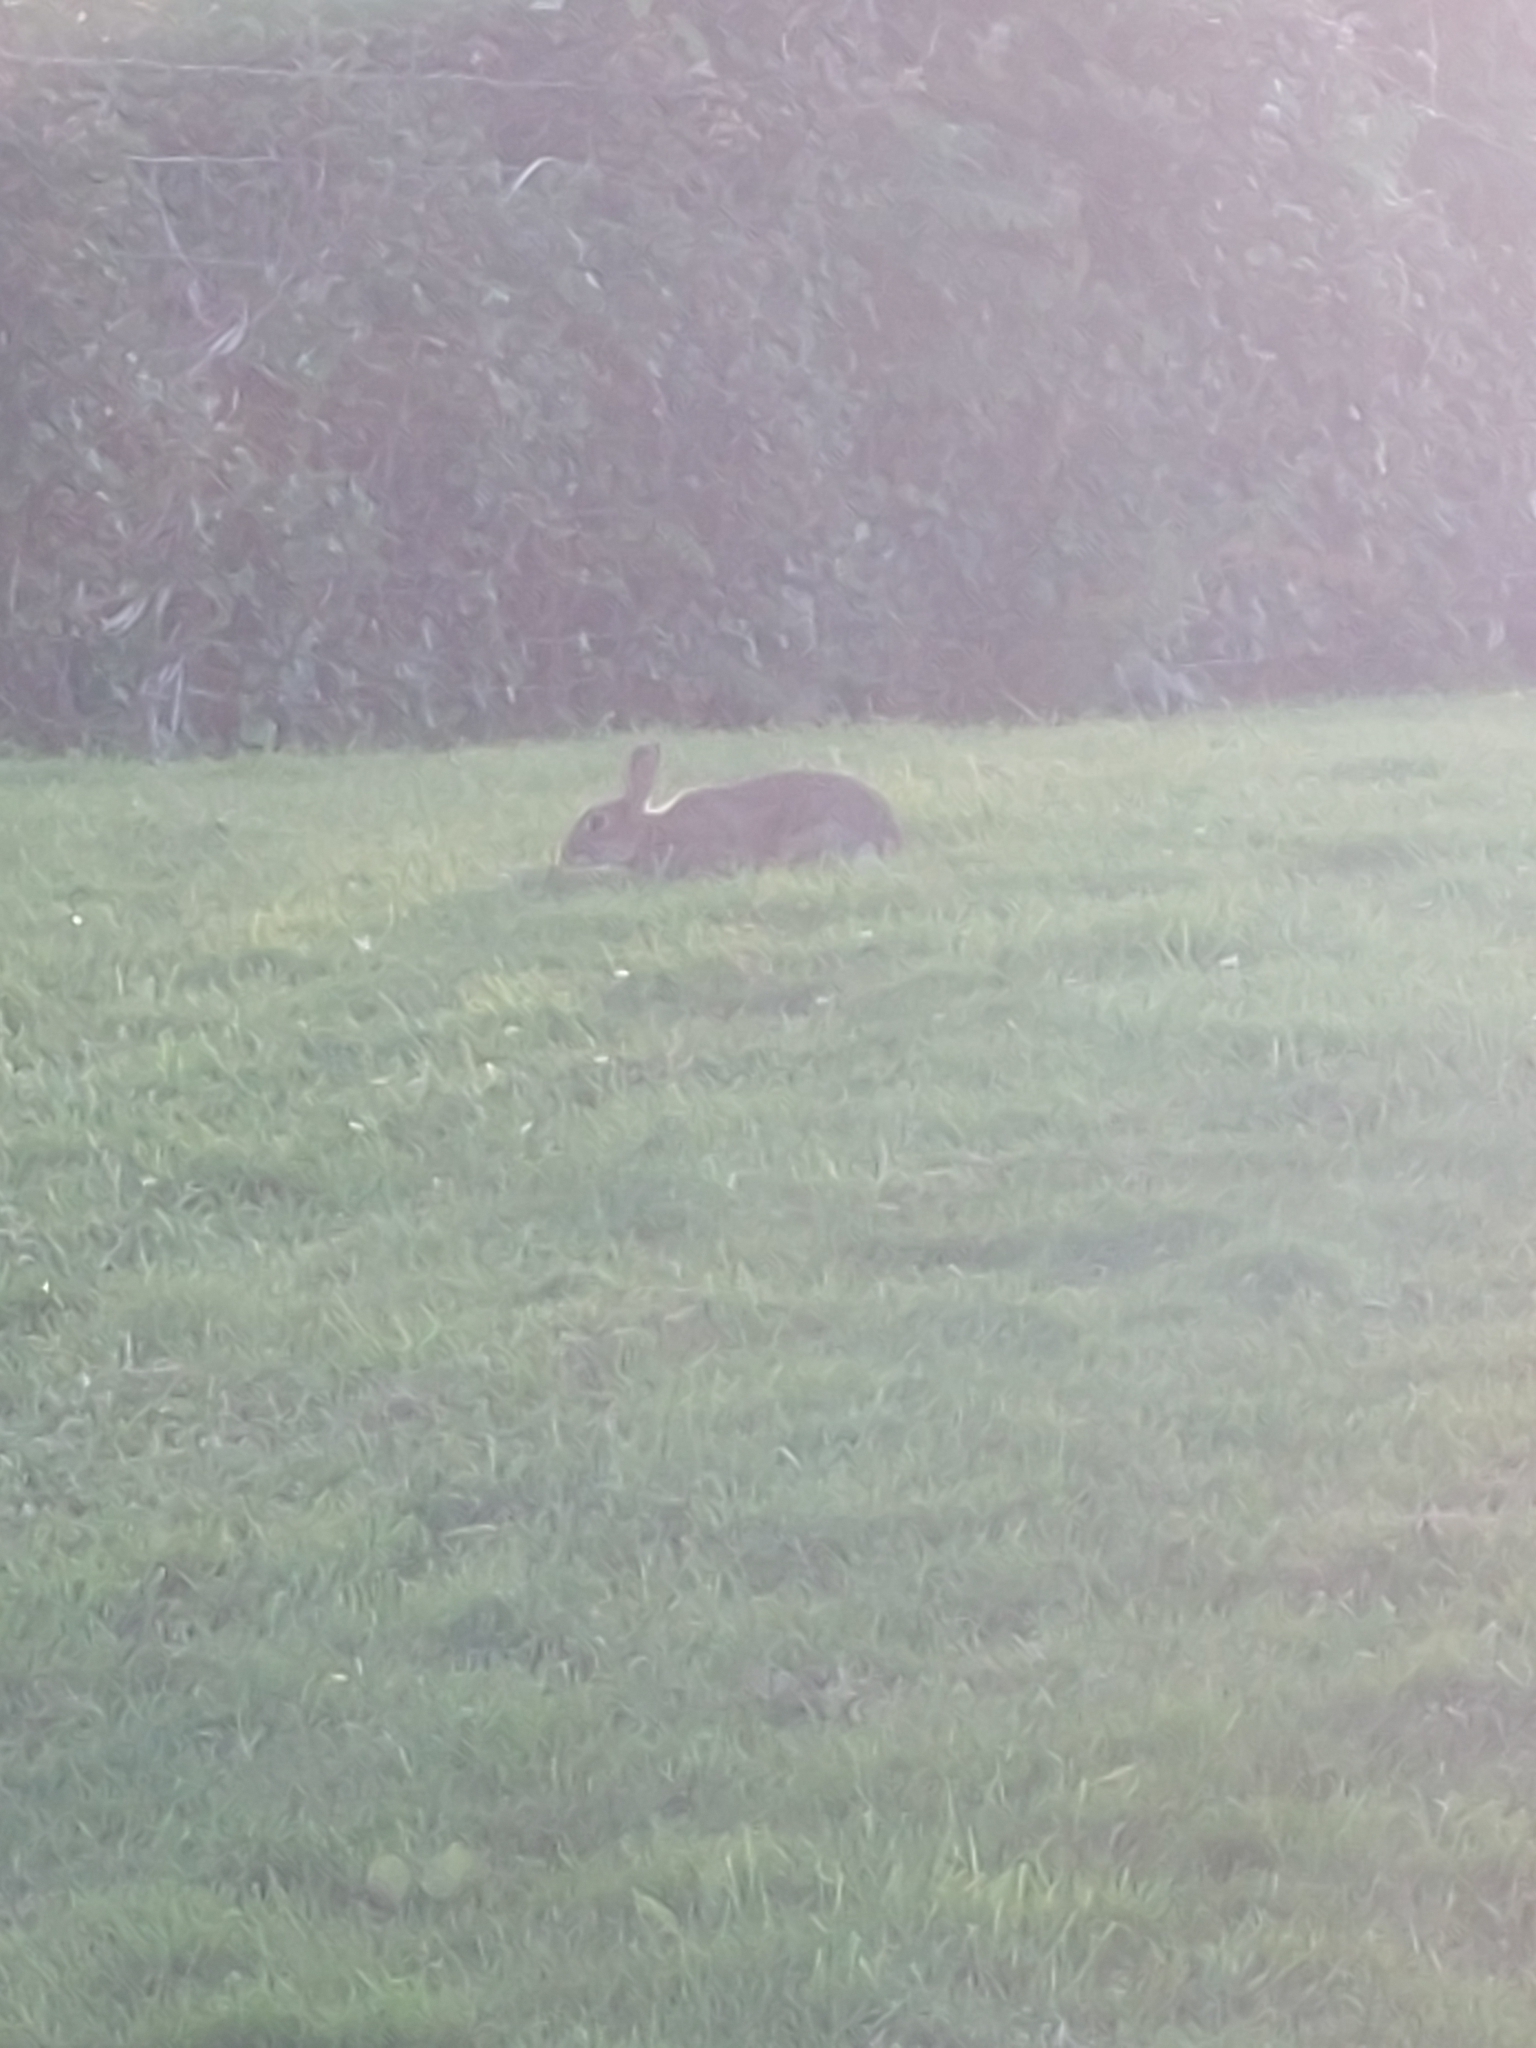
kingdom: Animalia
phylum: Chordata
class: Mammalia
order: Lagomorpha
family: Leporidae
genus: Oryctolagus
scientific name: Oryctolagus cuniculus
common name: European rabbit
